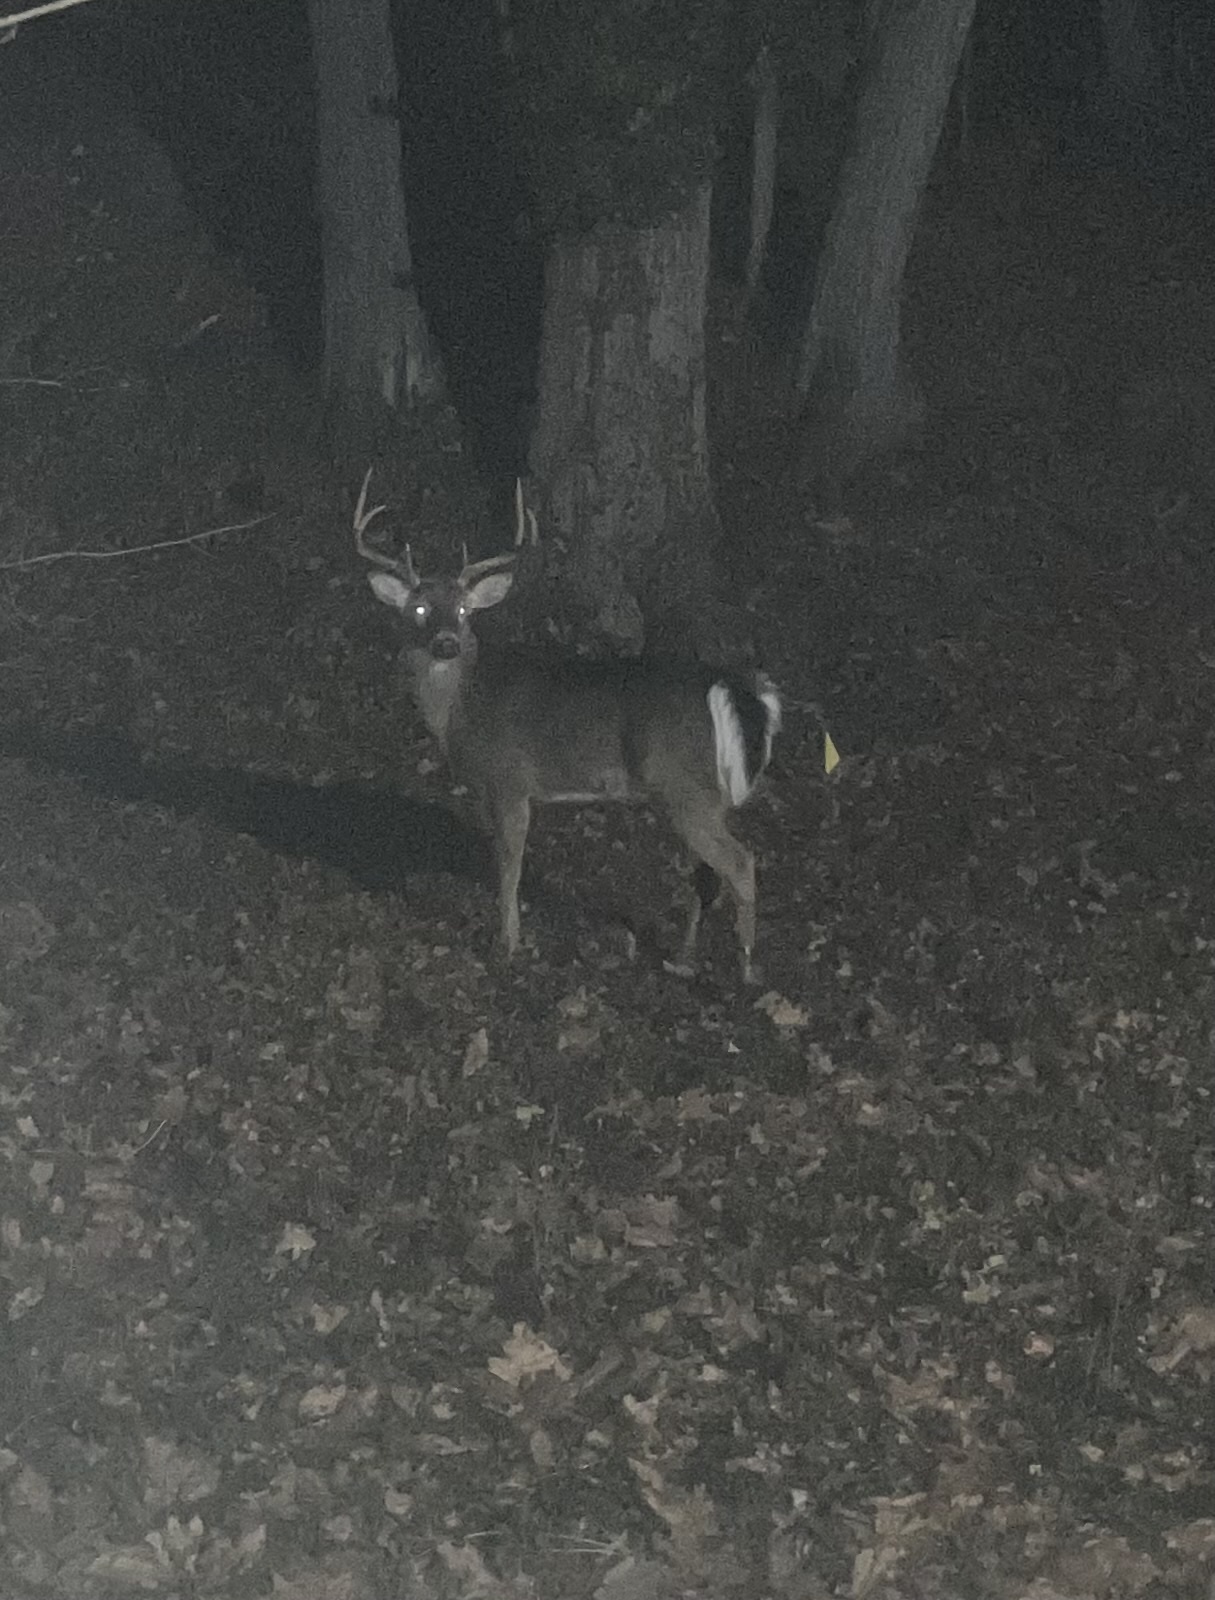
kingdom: Animalia
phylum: Chordata
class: Mammalia
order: Artiodactyla
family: Cervidae
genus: Odocoileus
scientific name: Odocoileus virginianus
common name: White-tailed deer
